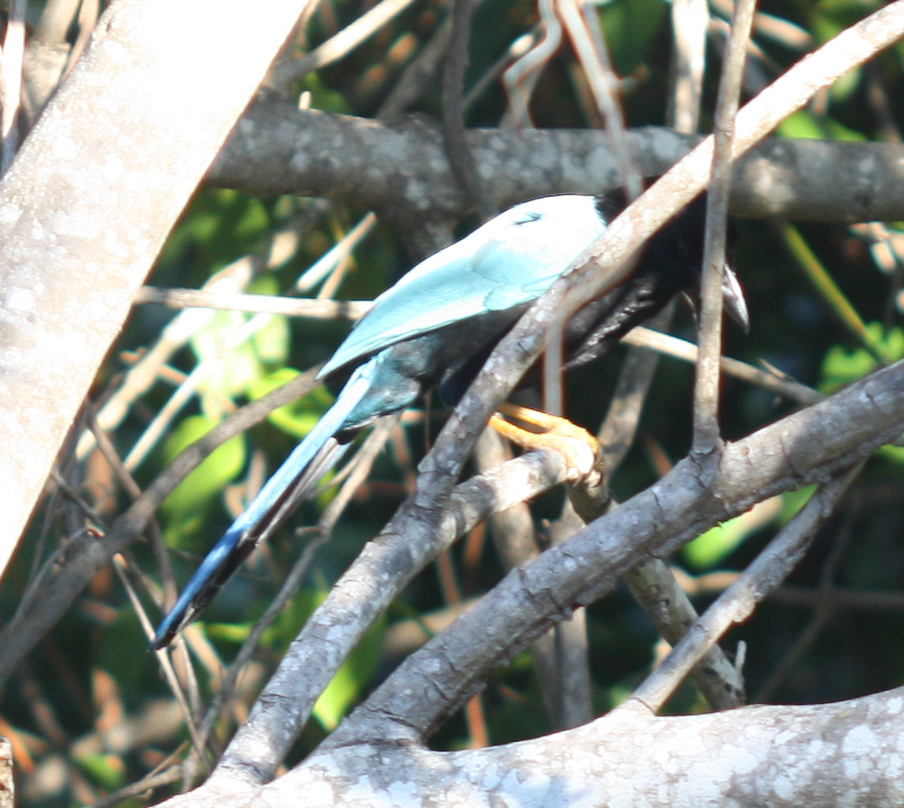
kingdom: Animalia
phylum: Chordata
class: Aves
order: Passeriformes
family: Corvidae
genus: Cyanocorax
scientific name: Cyanocorax yucatanicus
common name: Yucatan jay
